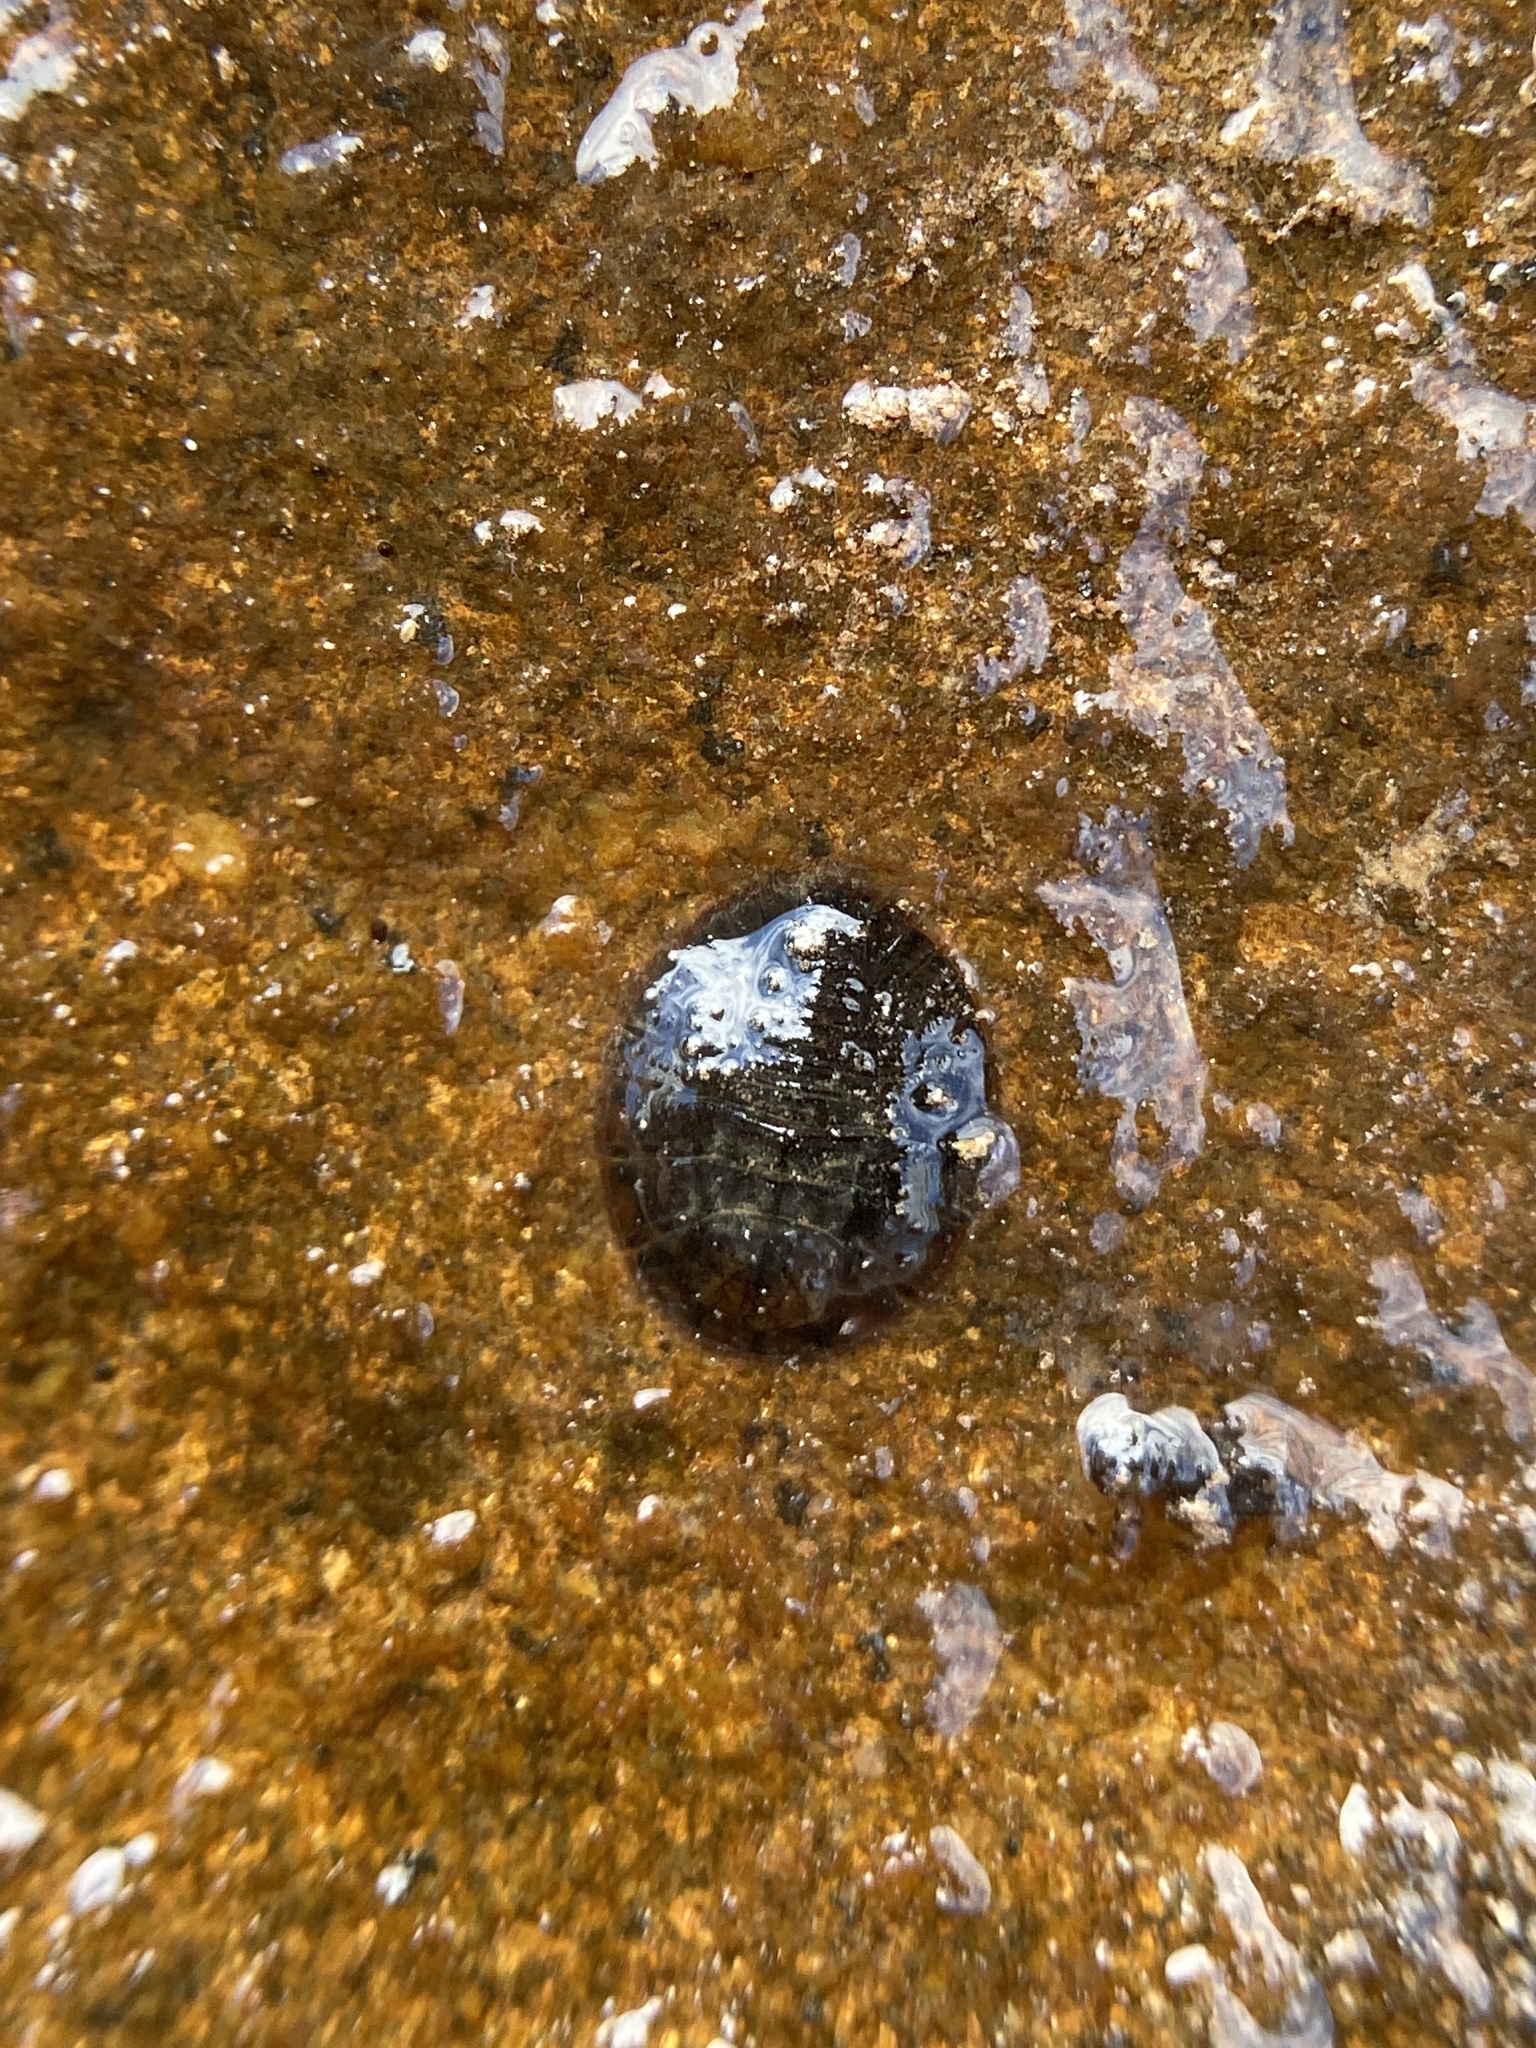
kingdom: Animalia
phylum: Arthropoda
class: Insecta
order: Coleoptera
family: Psephenidae
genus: Psephenus
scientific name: Psephenus herricki
